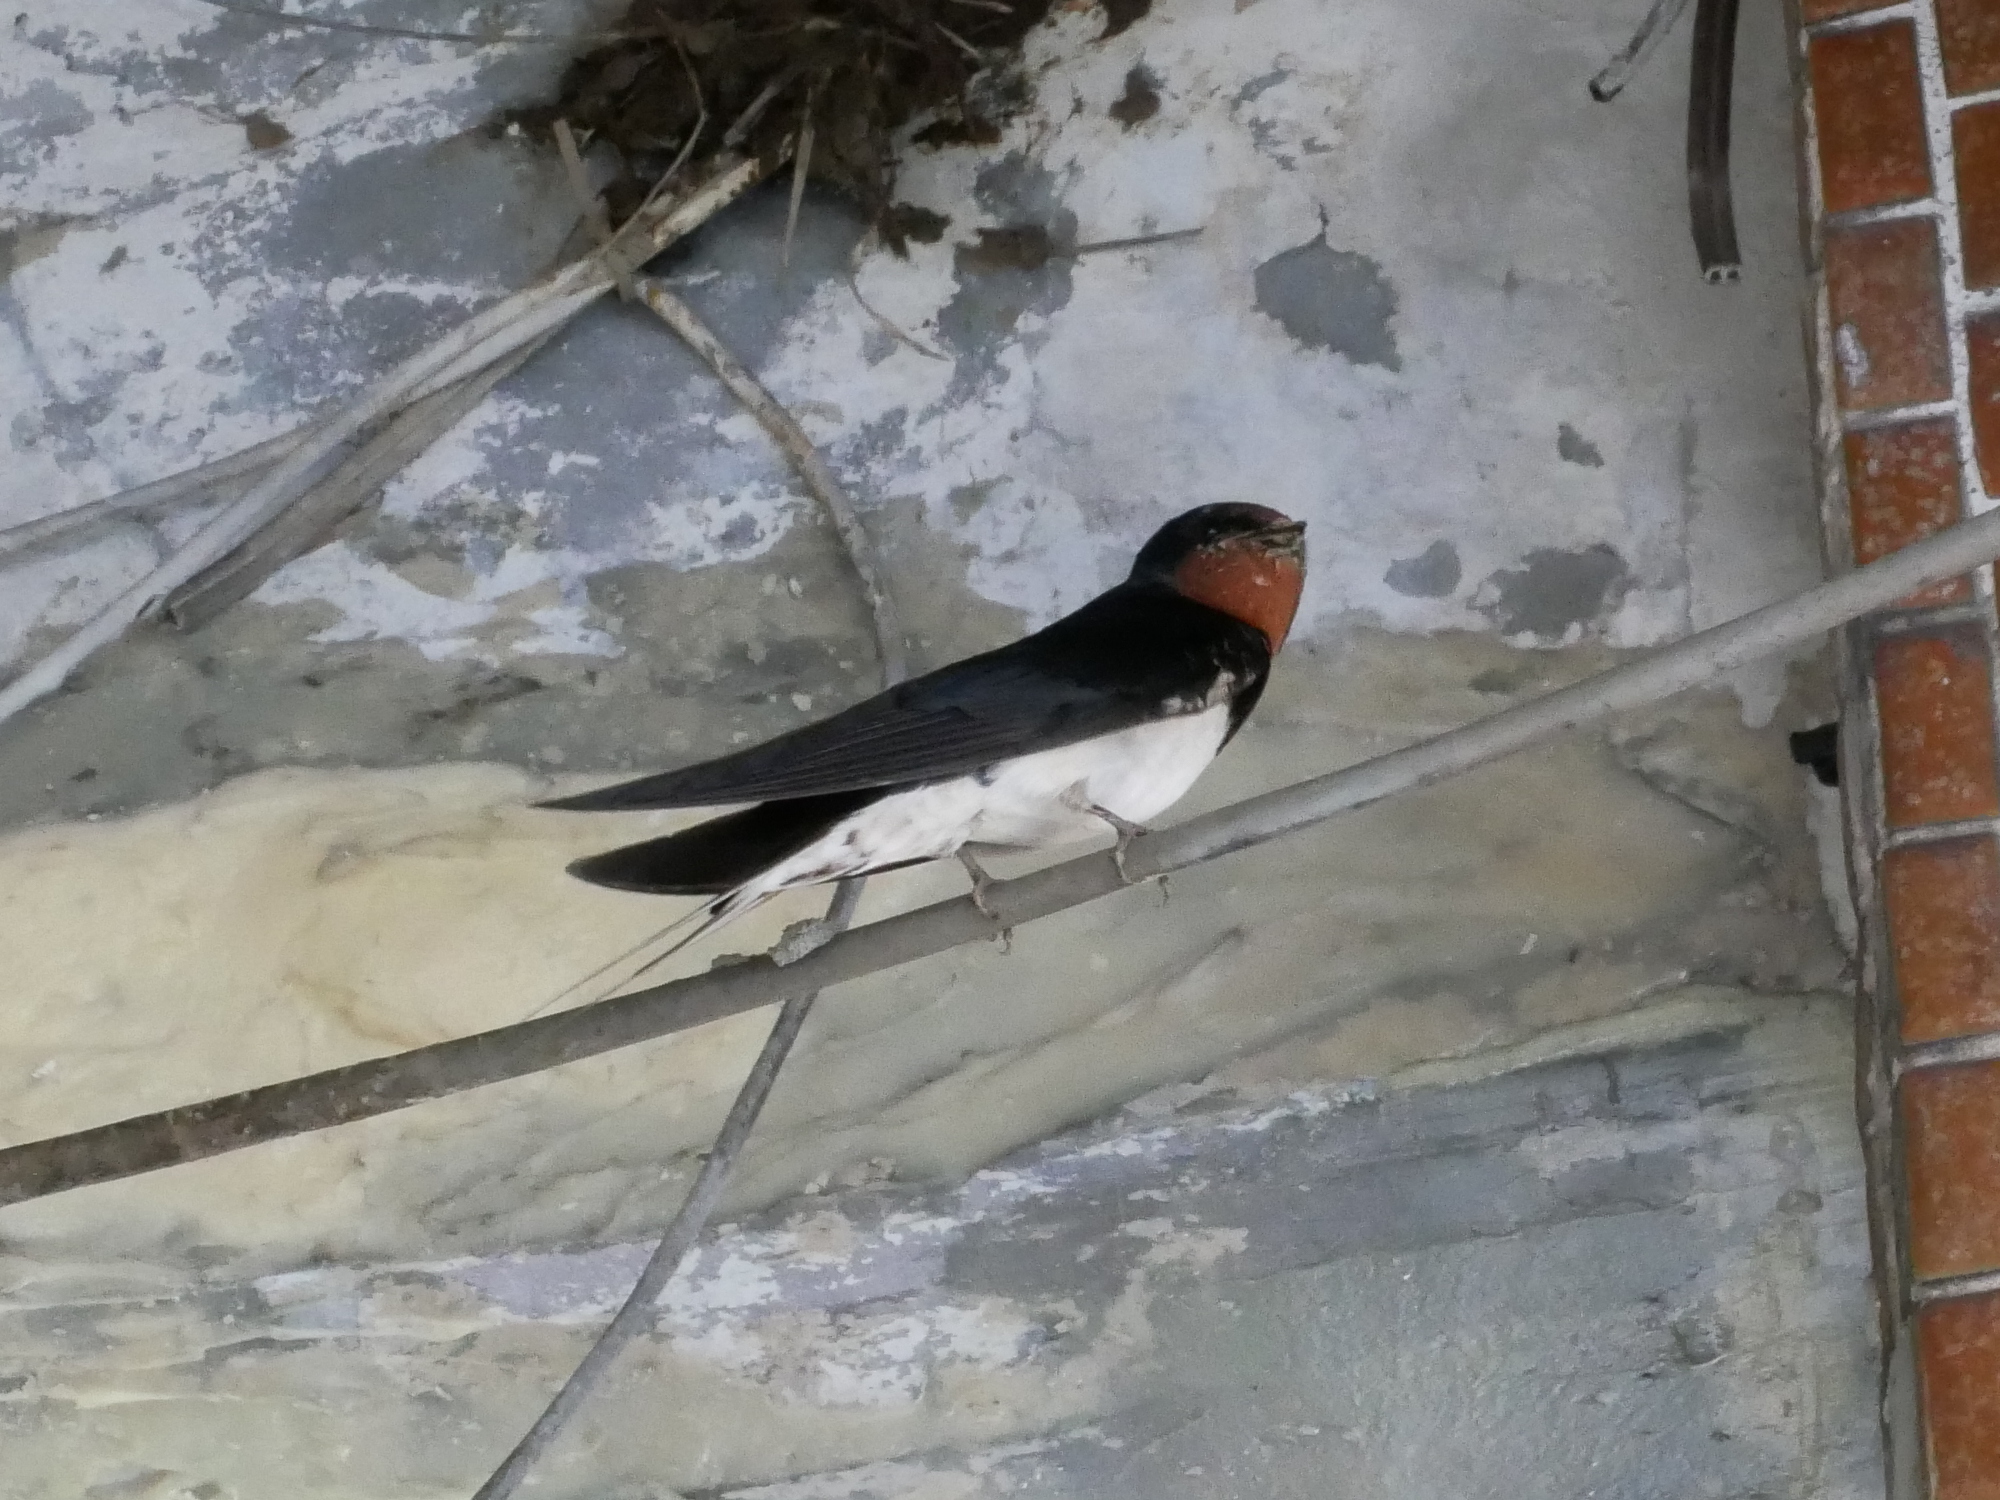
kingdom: Animalia
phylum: Chordata
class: Aves
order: Passeriformes
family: Hirundinidae
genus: Hirundo
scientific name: Hirundo rustica
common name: Barn swallow
